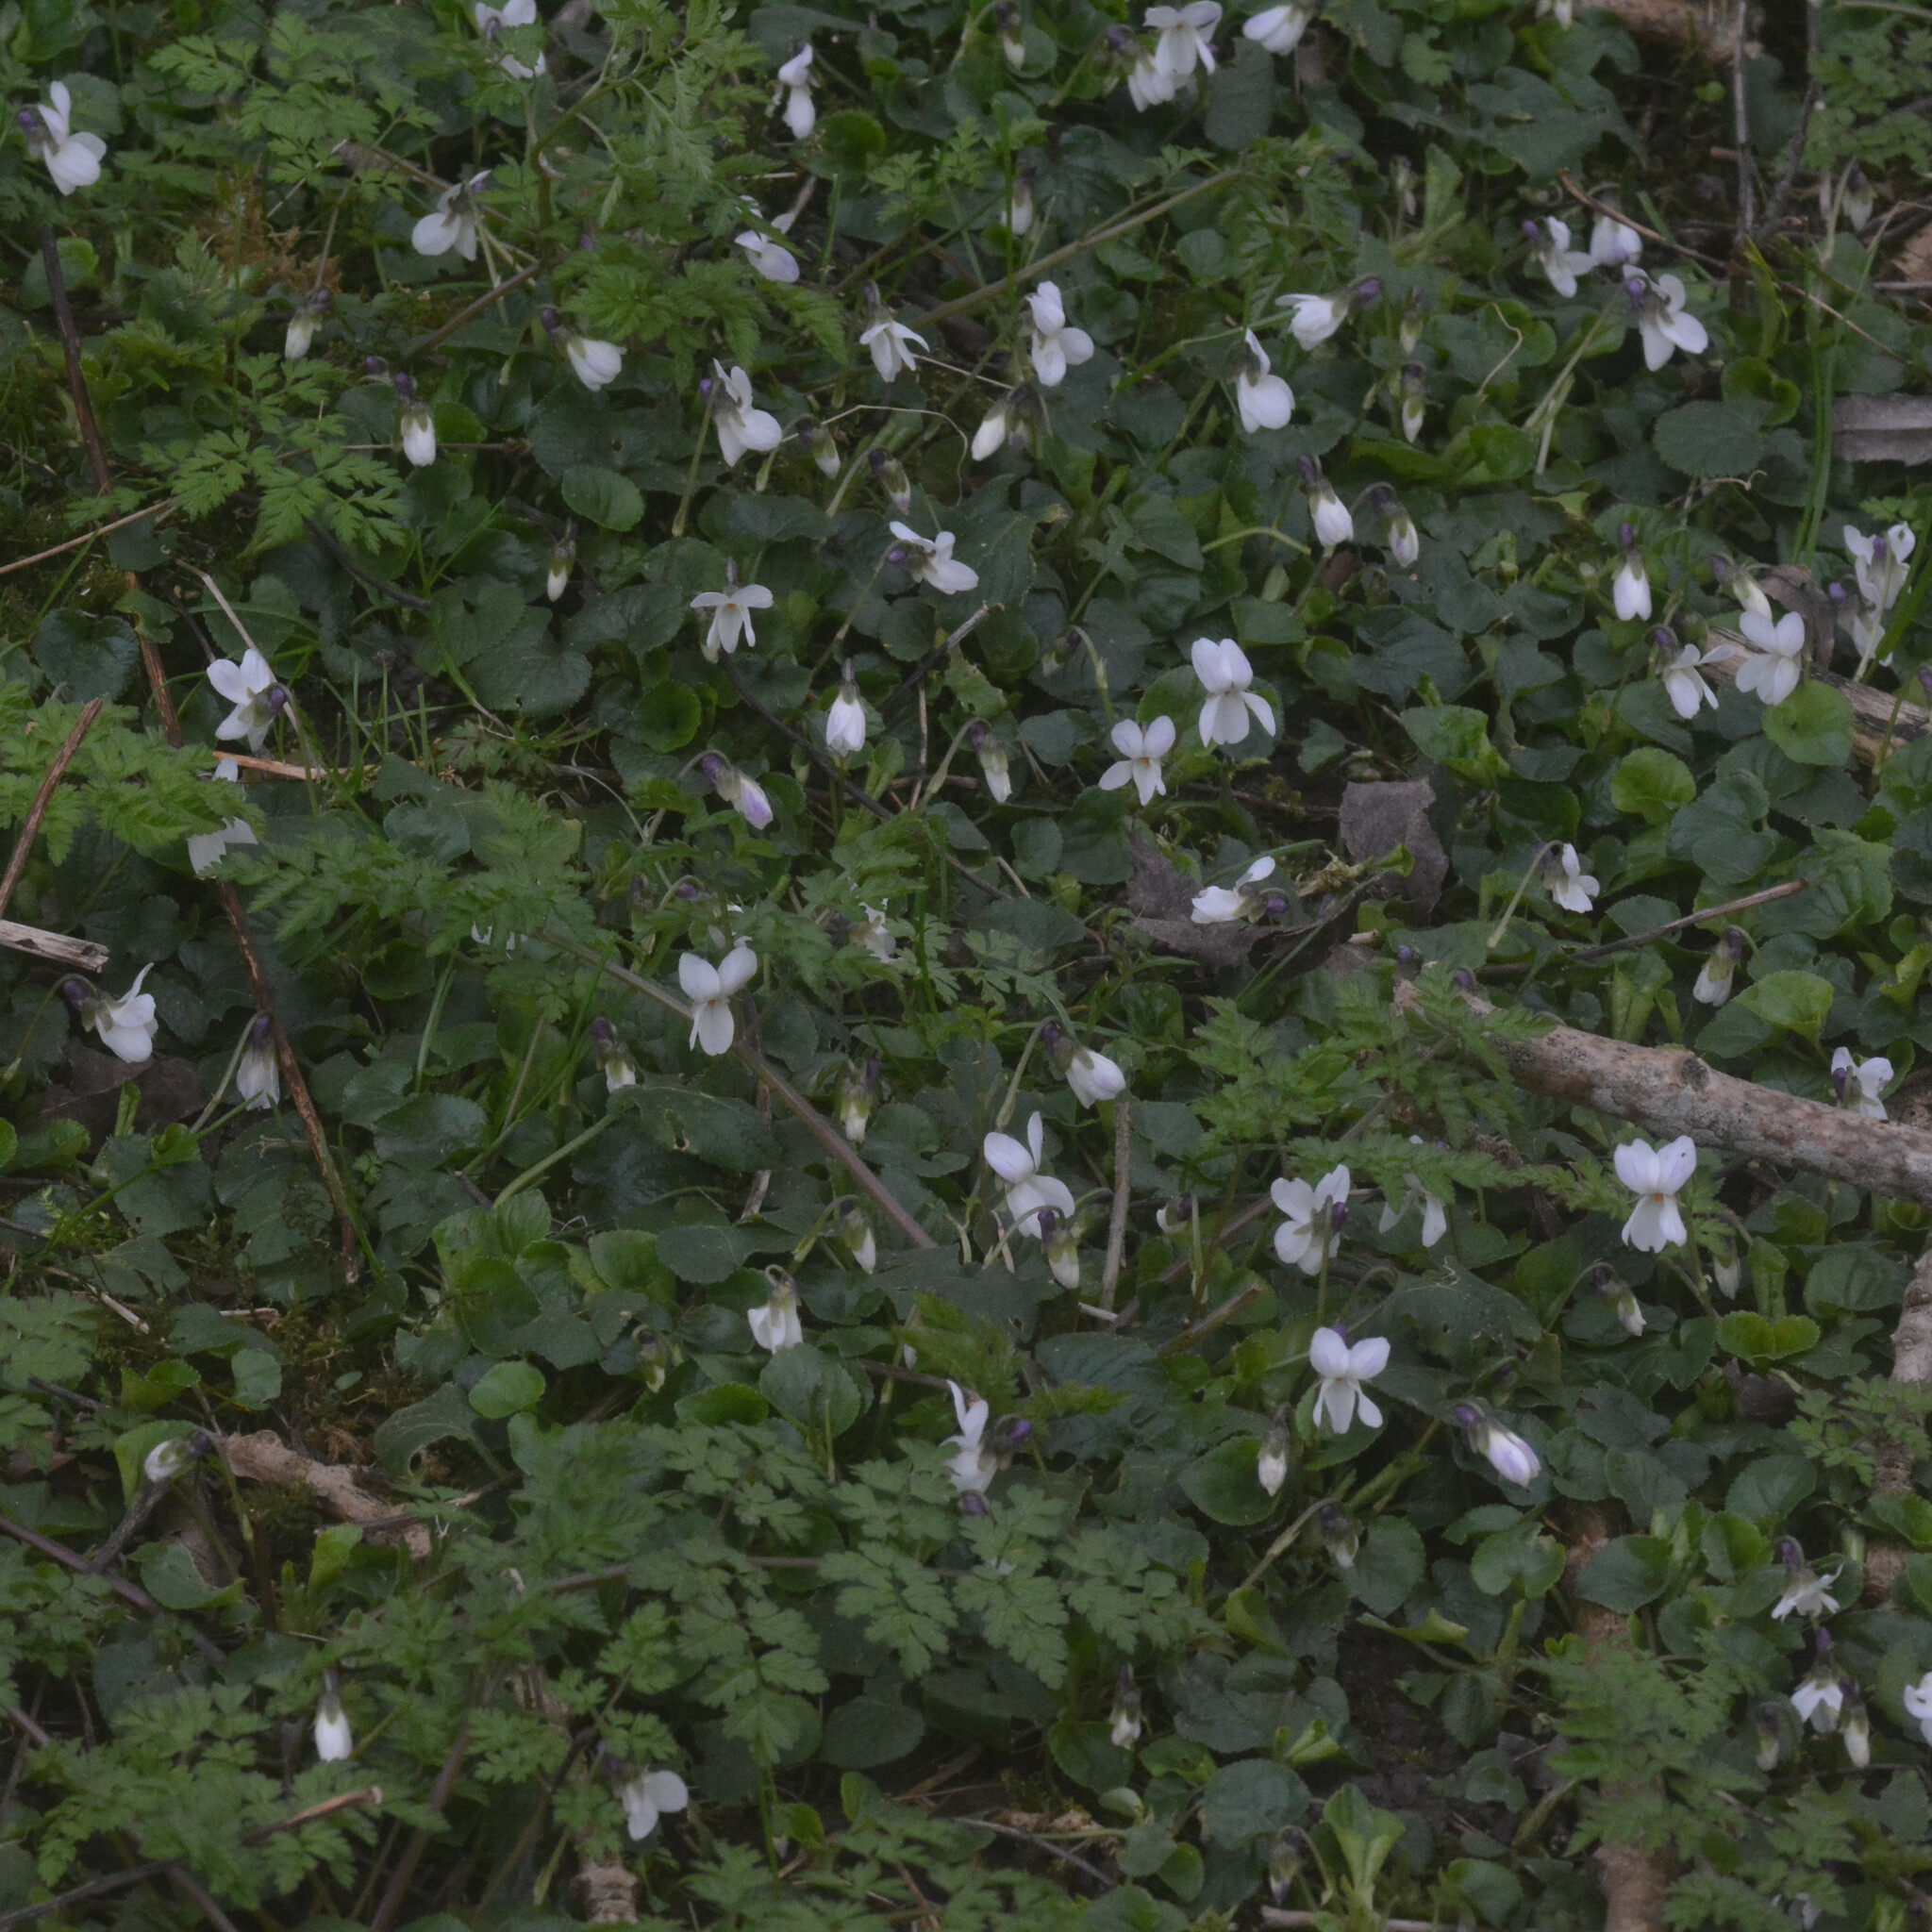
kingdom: Plantae
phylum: Tracheophyta
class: Magnoliopsida
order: Malpighiales
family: Violaceae
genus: Viola
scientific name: Viola odorata
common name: Sweet violet
